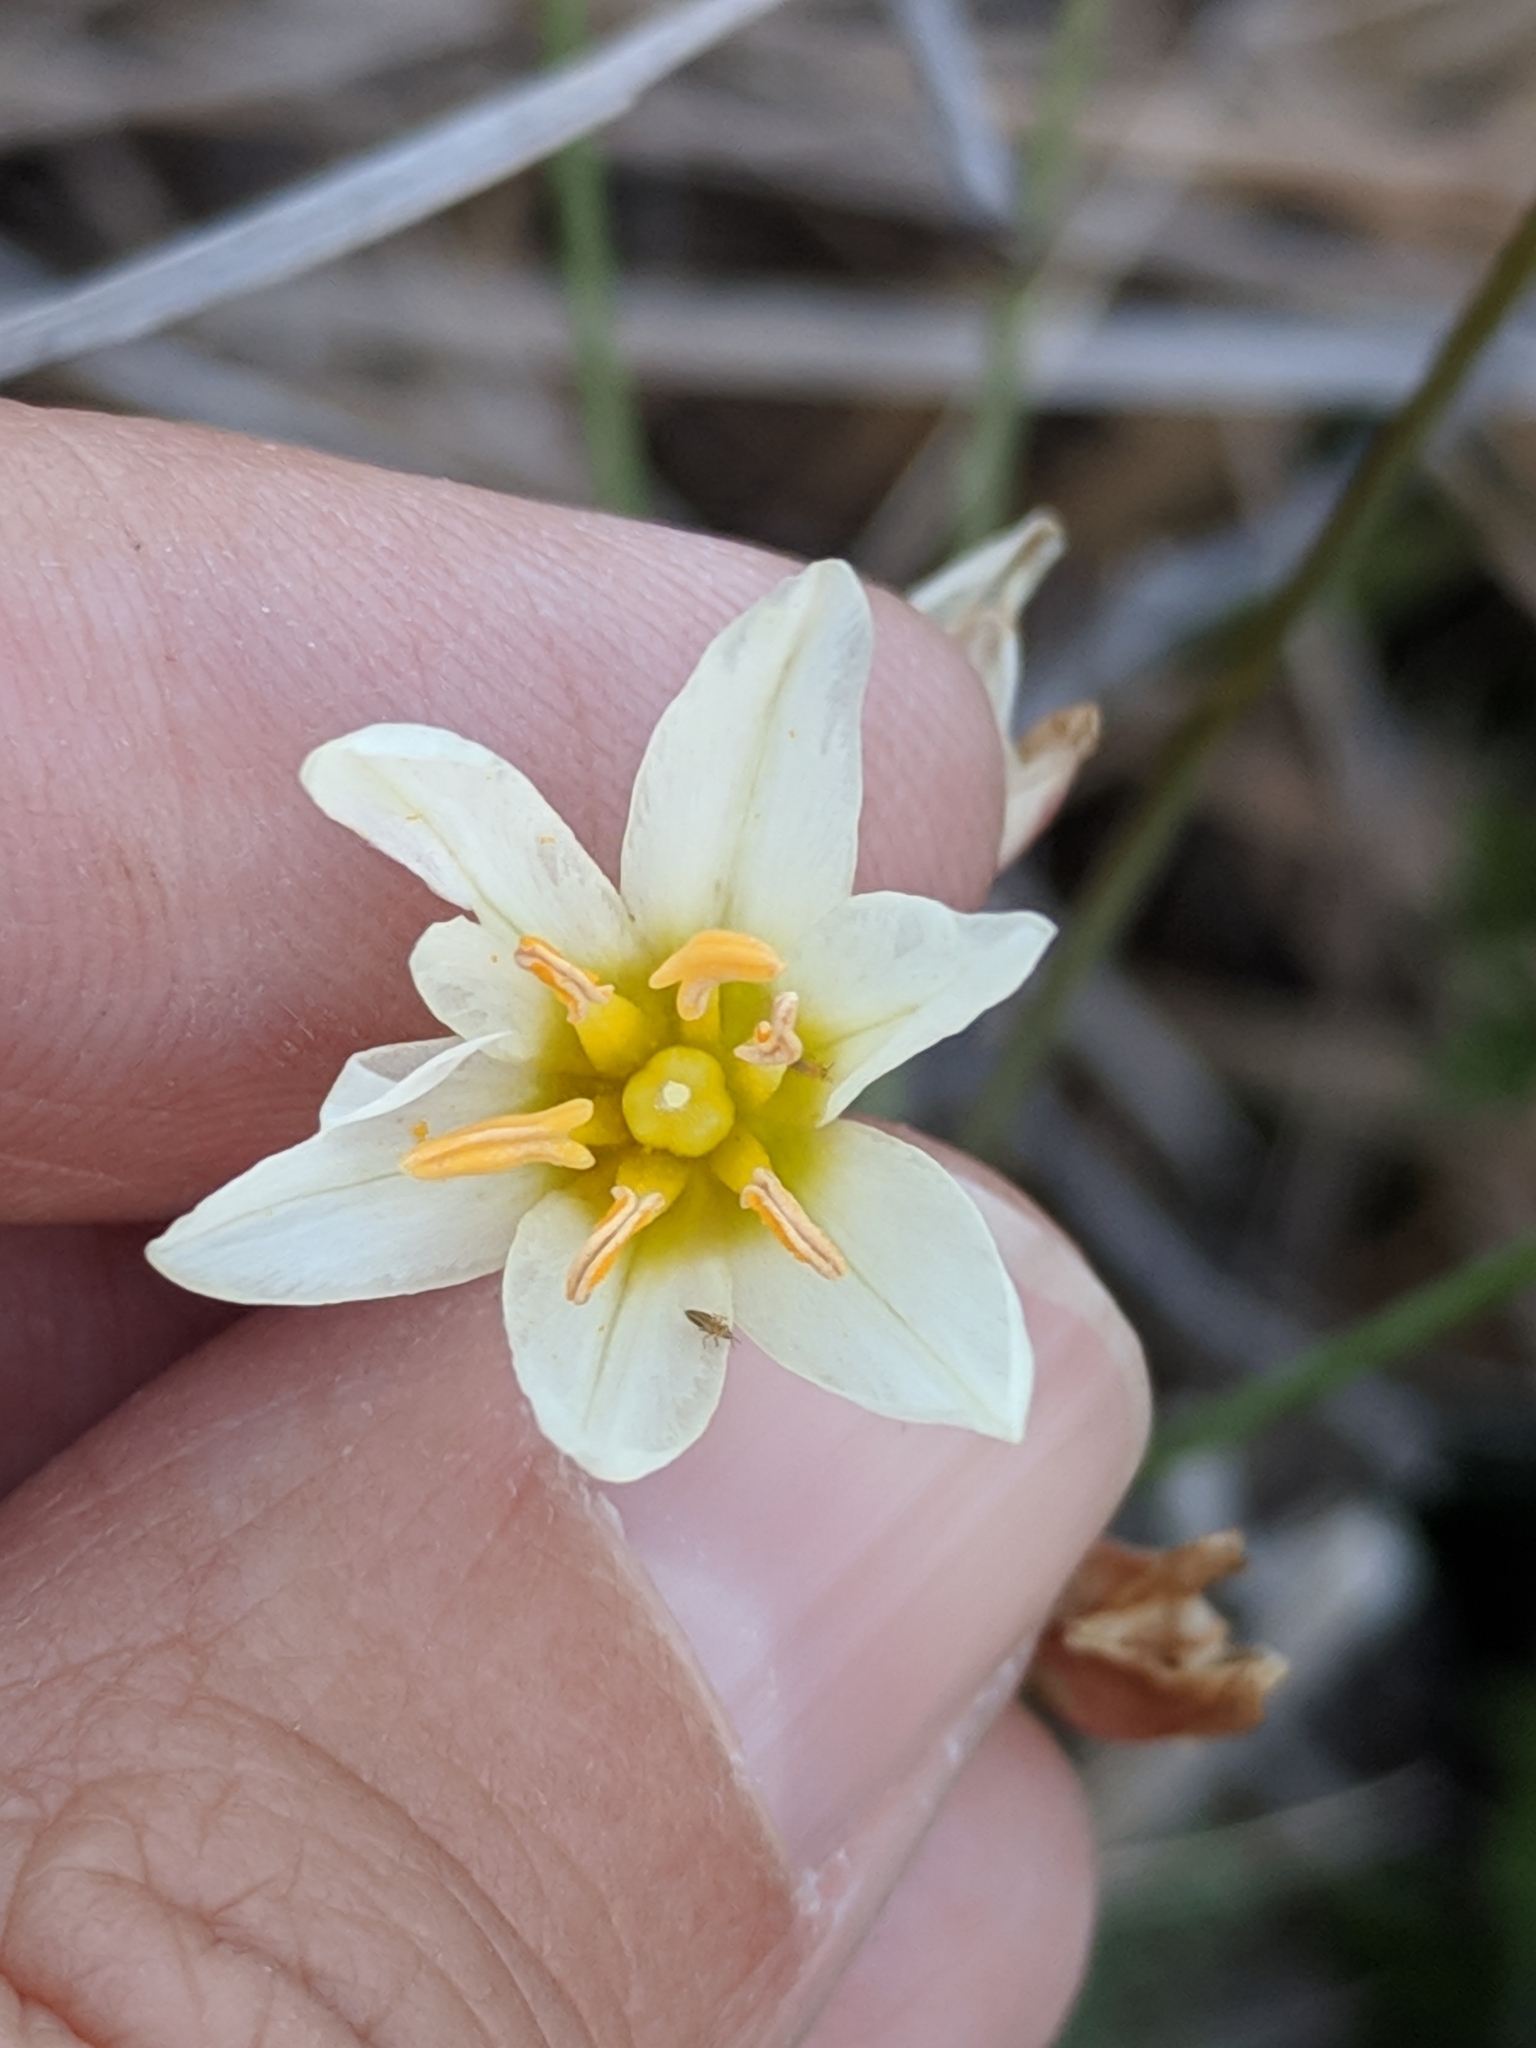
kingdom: Plantae
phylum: Tracheophyta
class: Liliopsida
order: Asparagales
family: Amaryllidaceae
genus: Nothoscordum
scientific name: Nothoscordum bivalve
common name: Crow-poison
